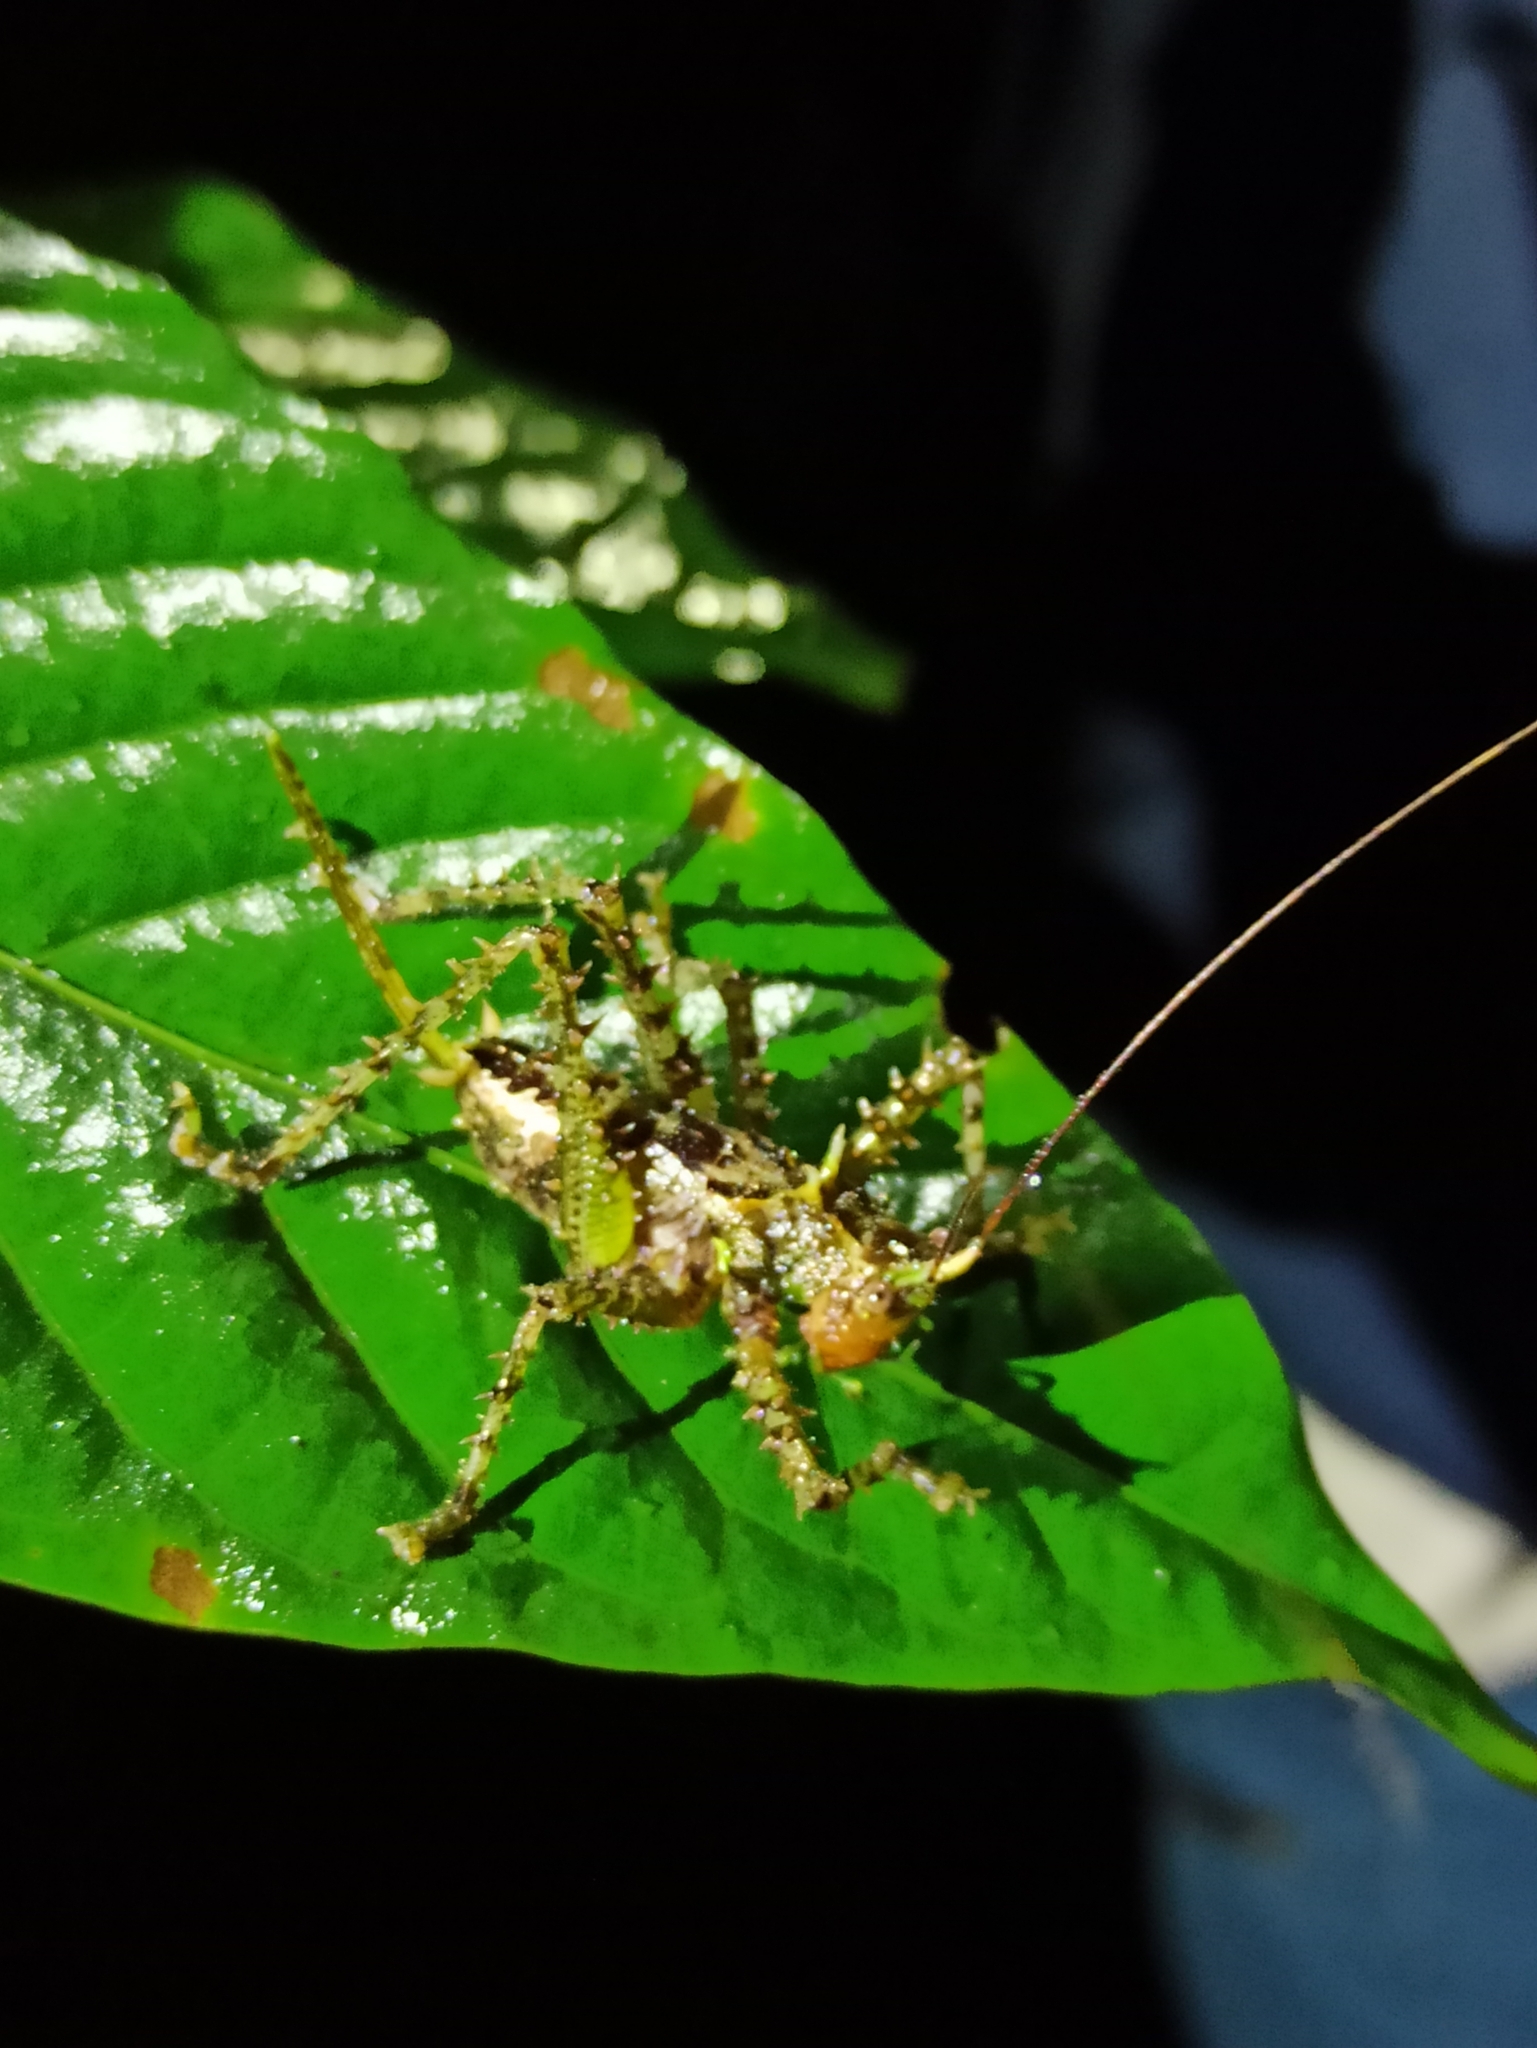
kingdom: Animalia
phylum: Arthropoda
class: Insecta
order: Orthoptera
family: Tettigoniidae
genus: Panacanthus
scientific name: Panacanthus varius
